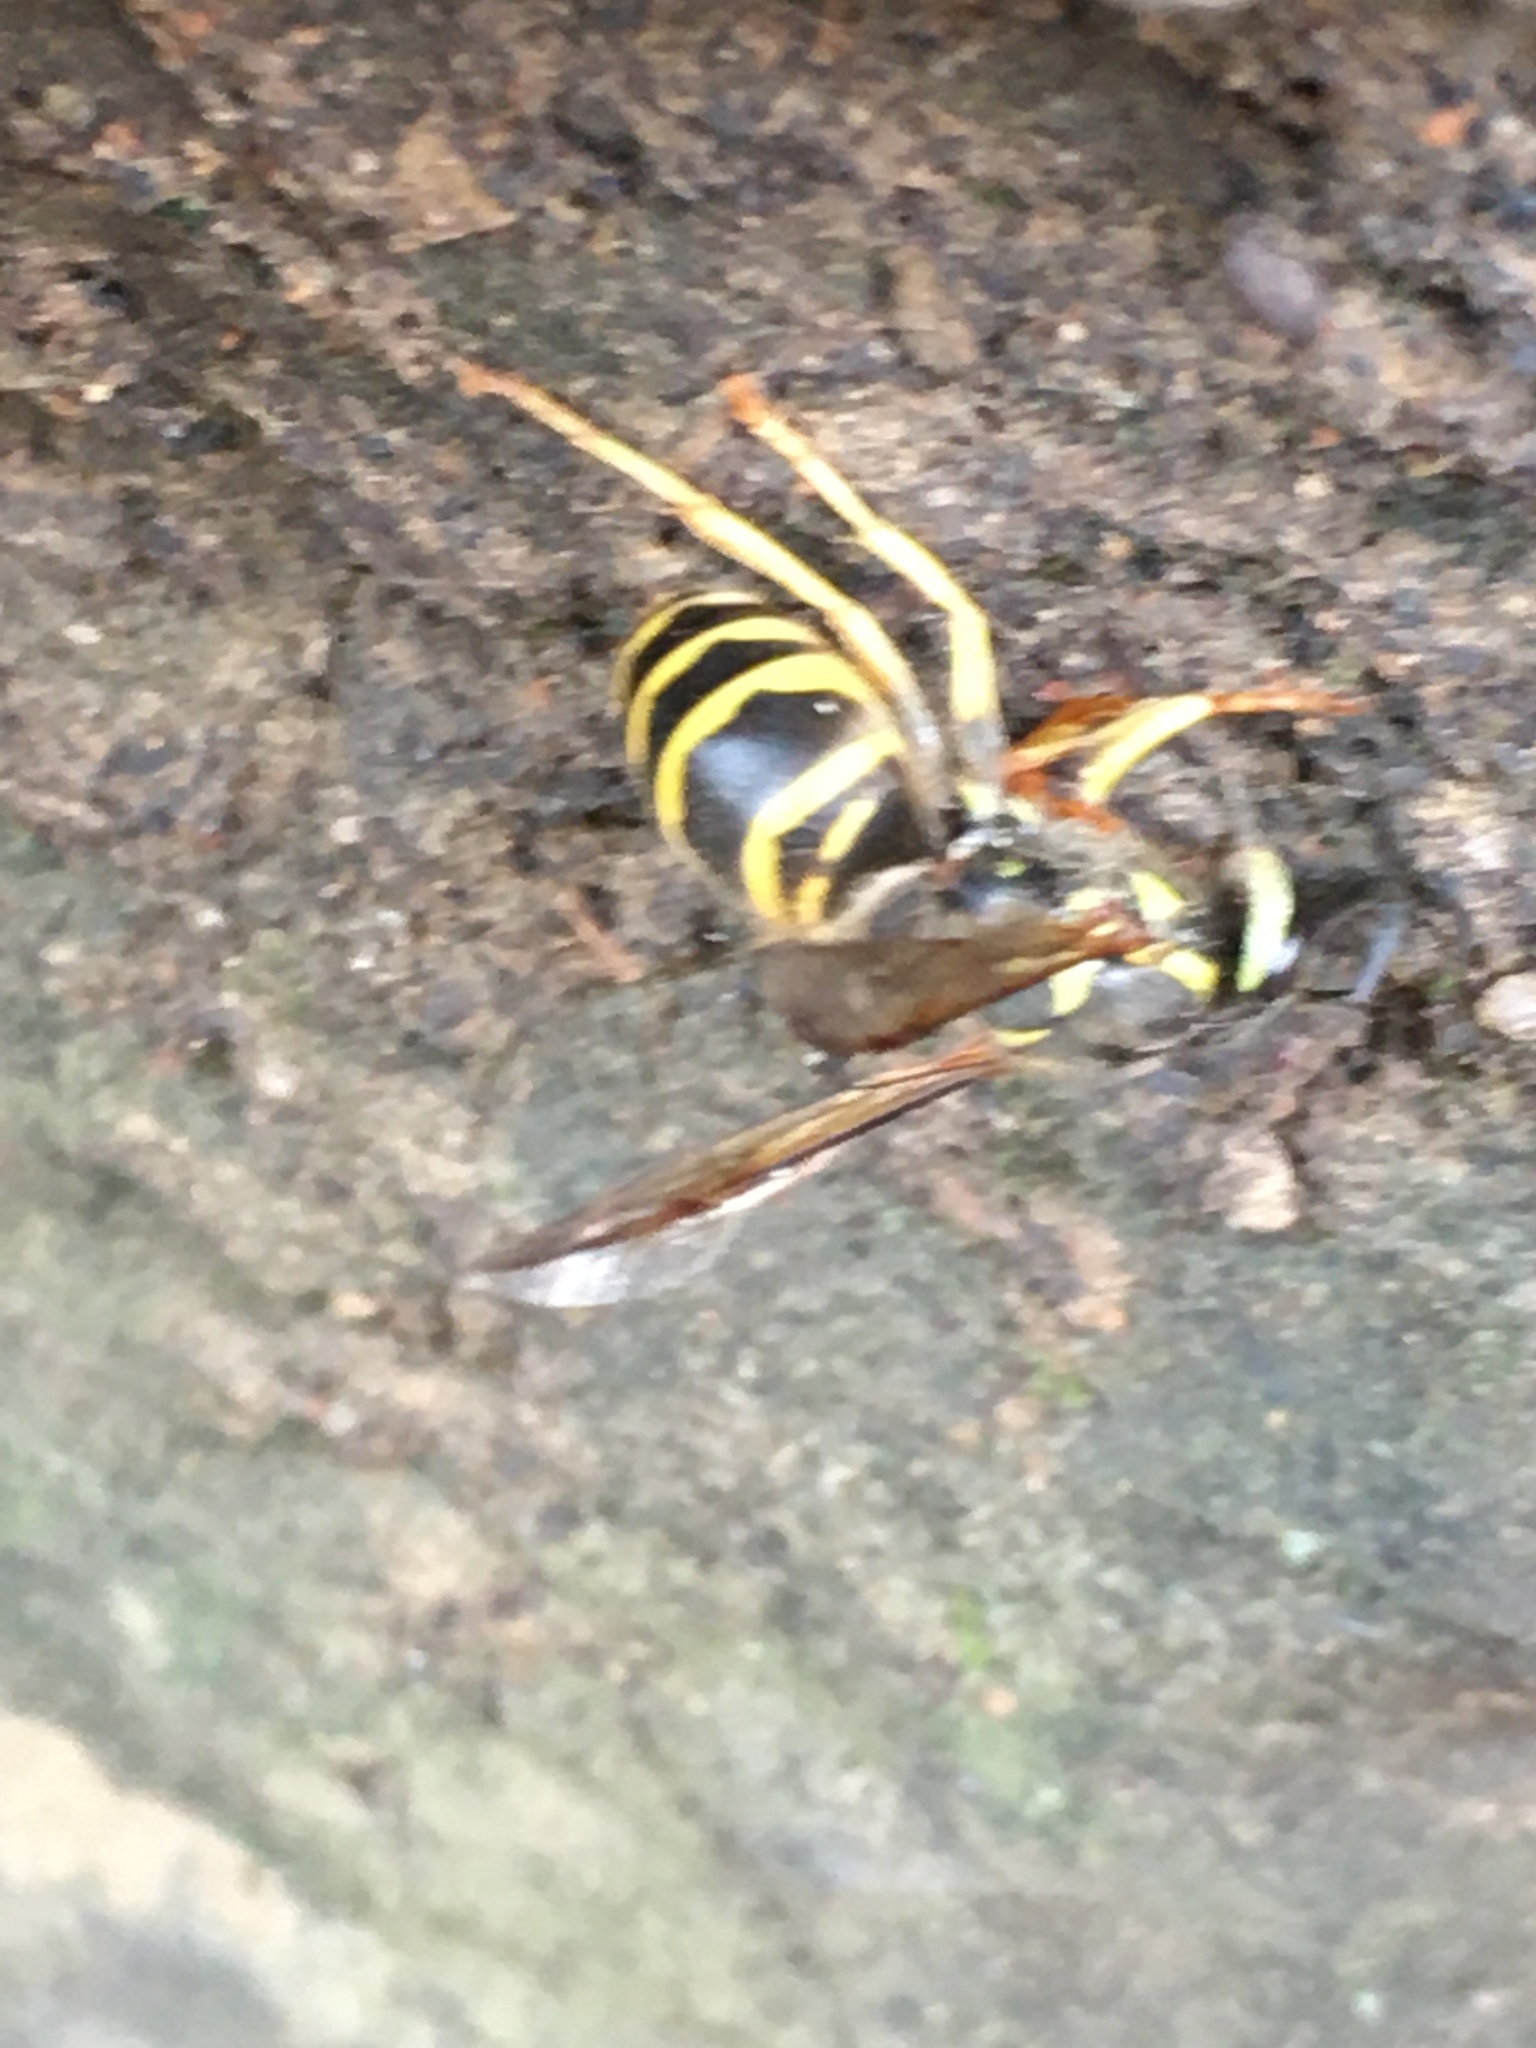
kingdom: Animalia
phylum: Arthropoda
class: Insecta
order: Hymenoptera
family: Vespidae
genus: Vespula
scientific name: Vespula maculifrons
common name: Eastern yellowjacket
